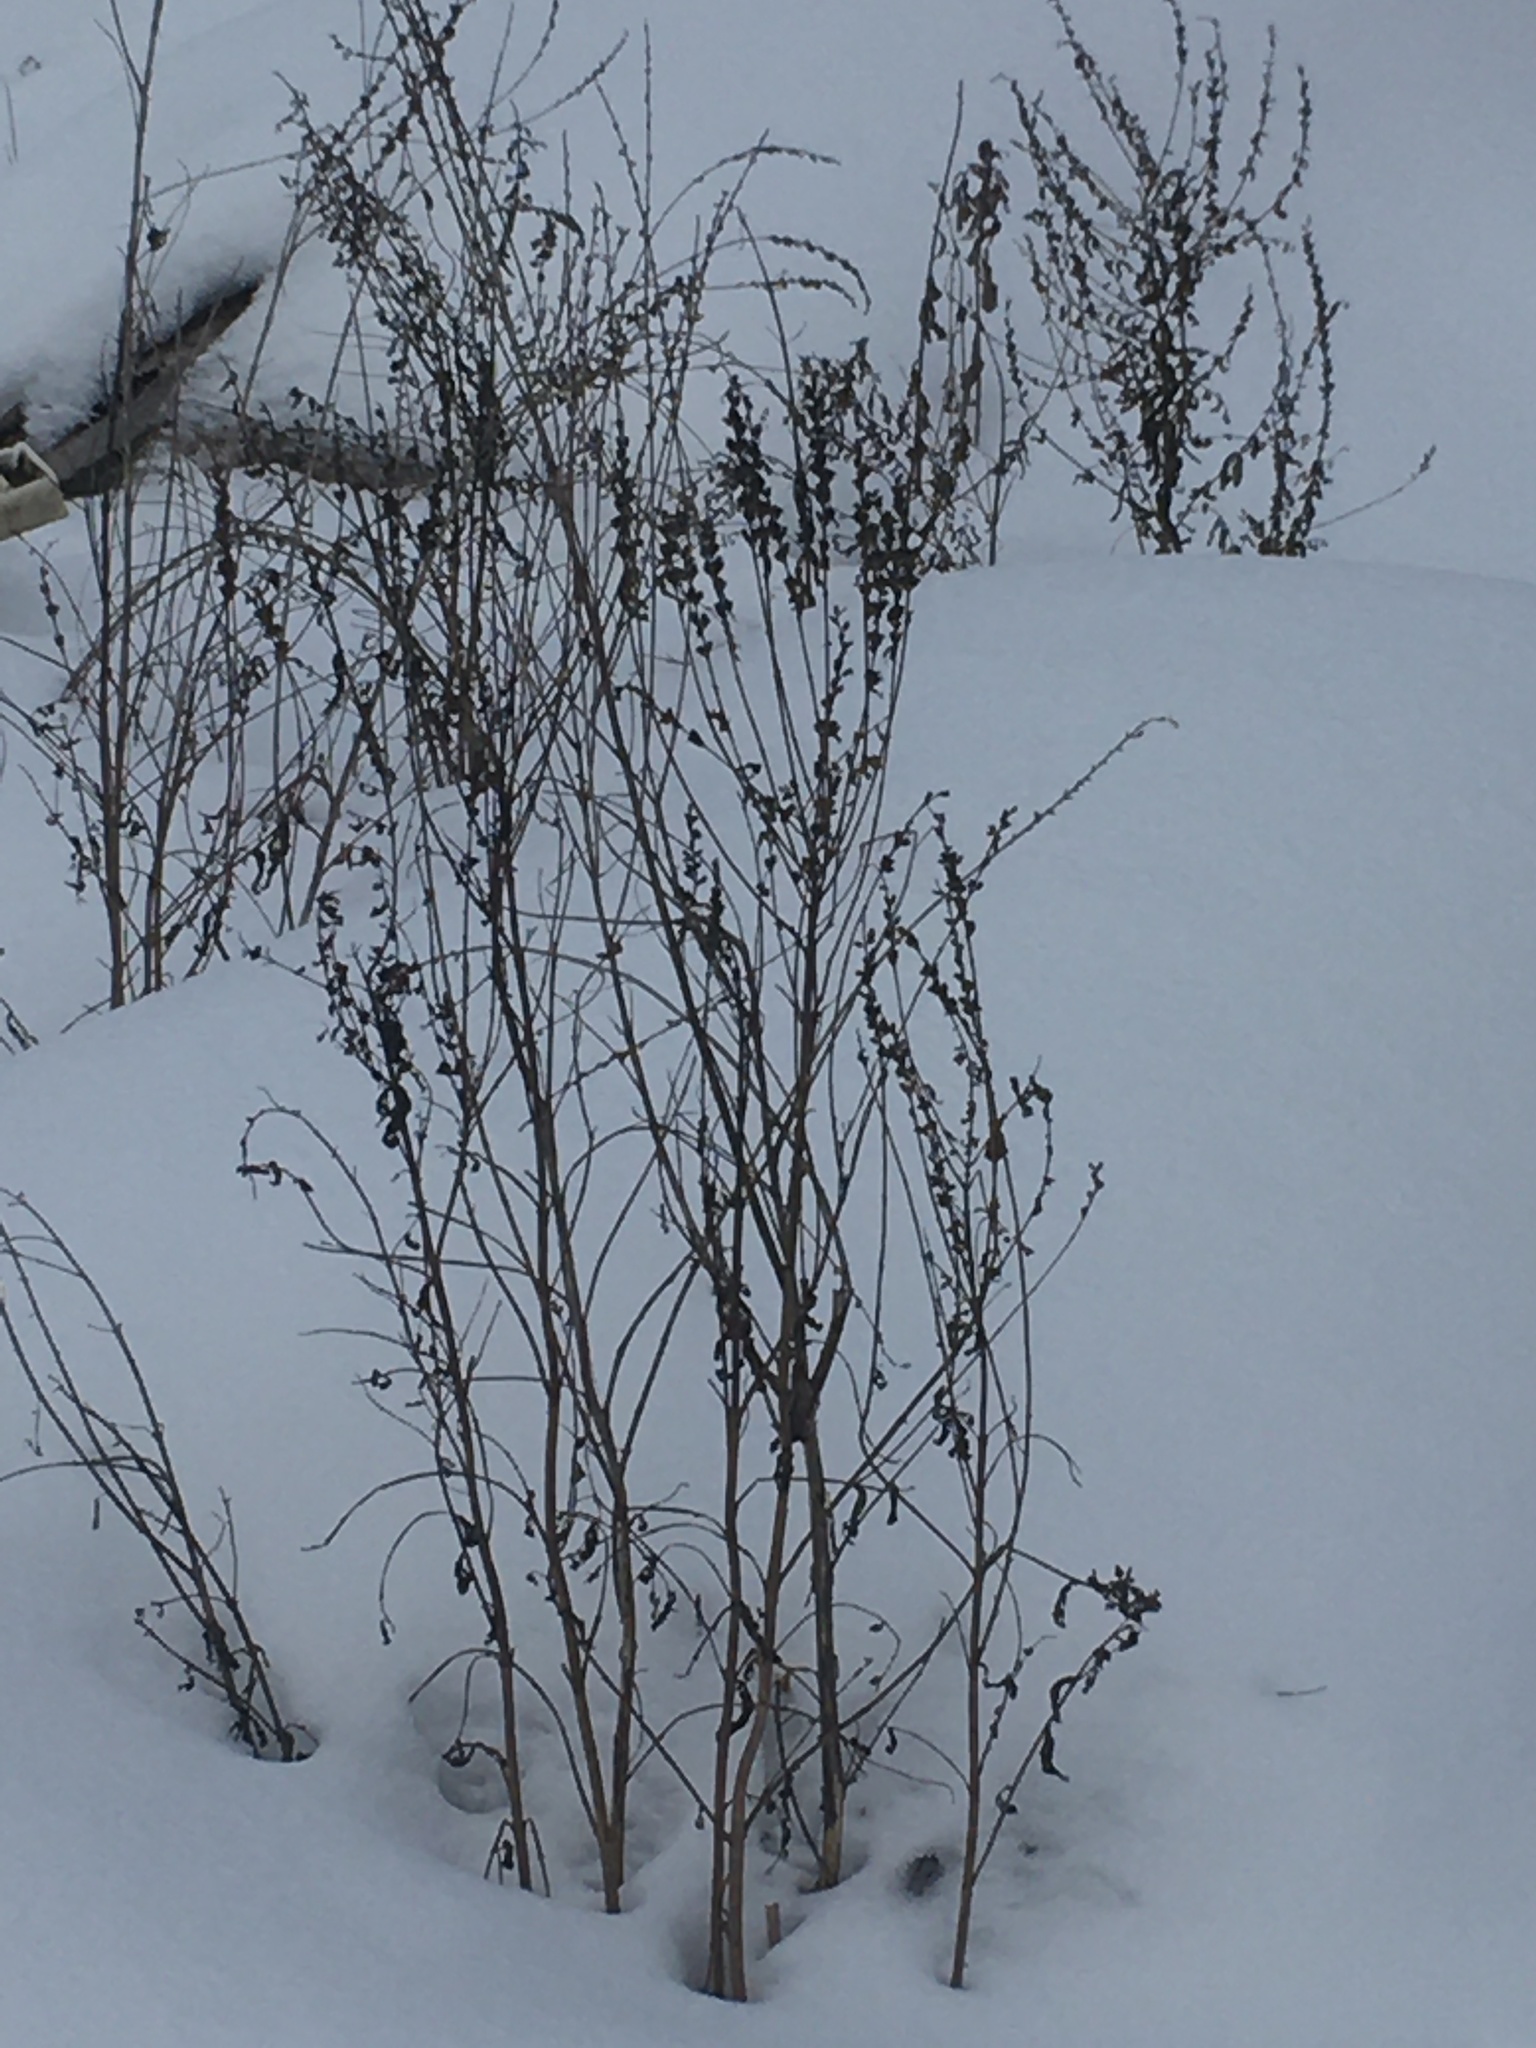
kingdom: Plantae
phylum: Tracheophyta
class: Magnoliopsida
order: Myrtales
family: Lythraceae
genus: Lythrum
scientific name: Lythrum salicaria
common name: Purple loosestrife
